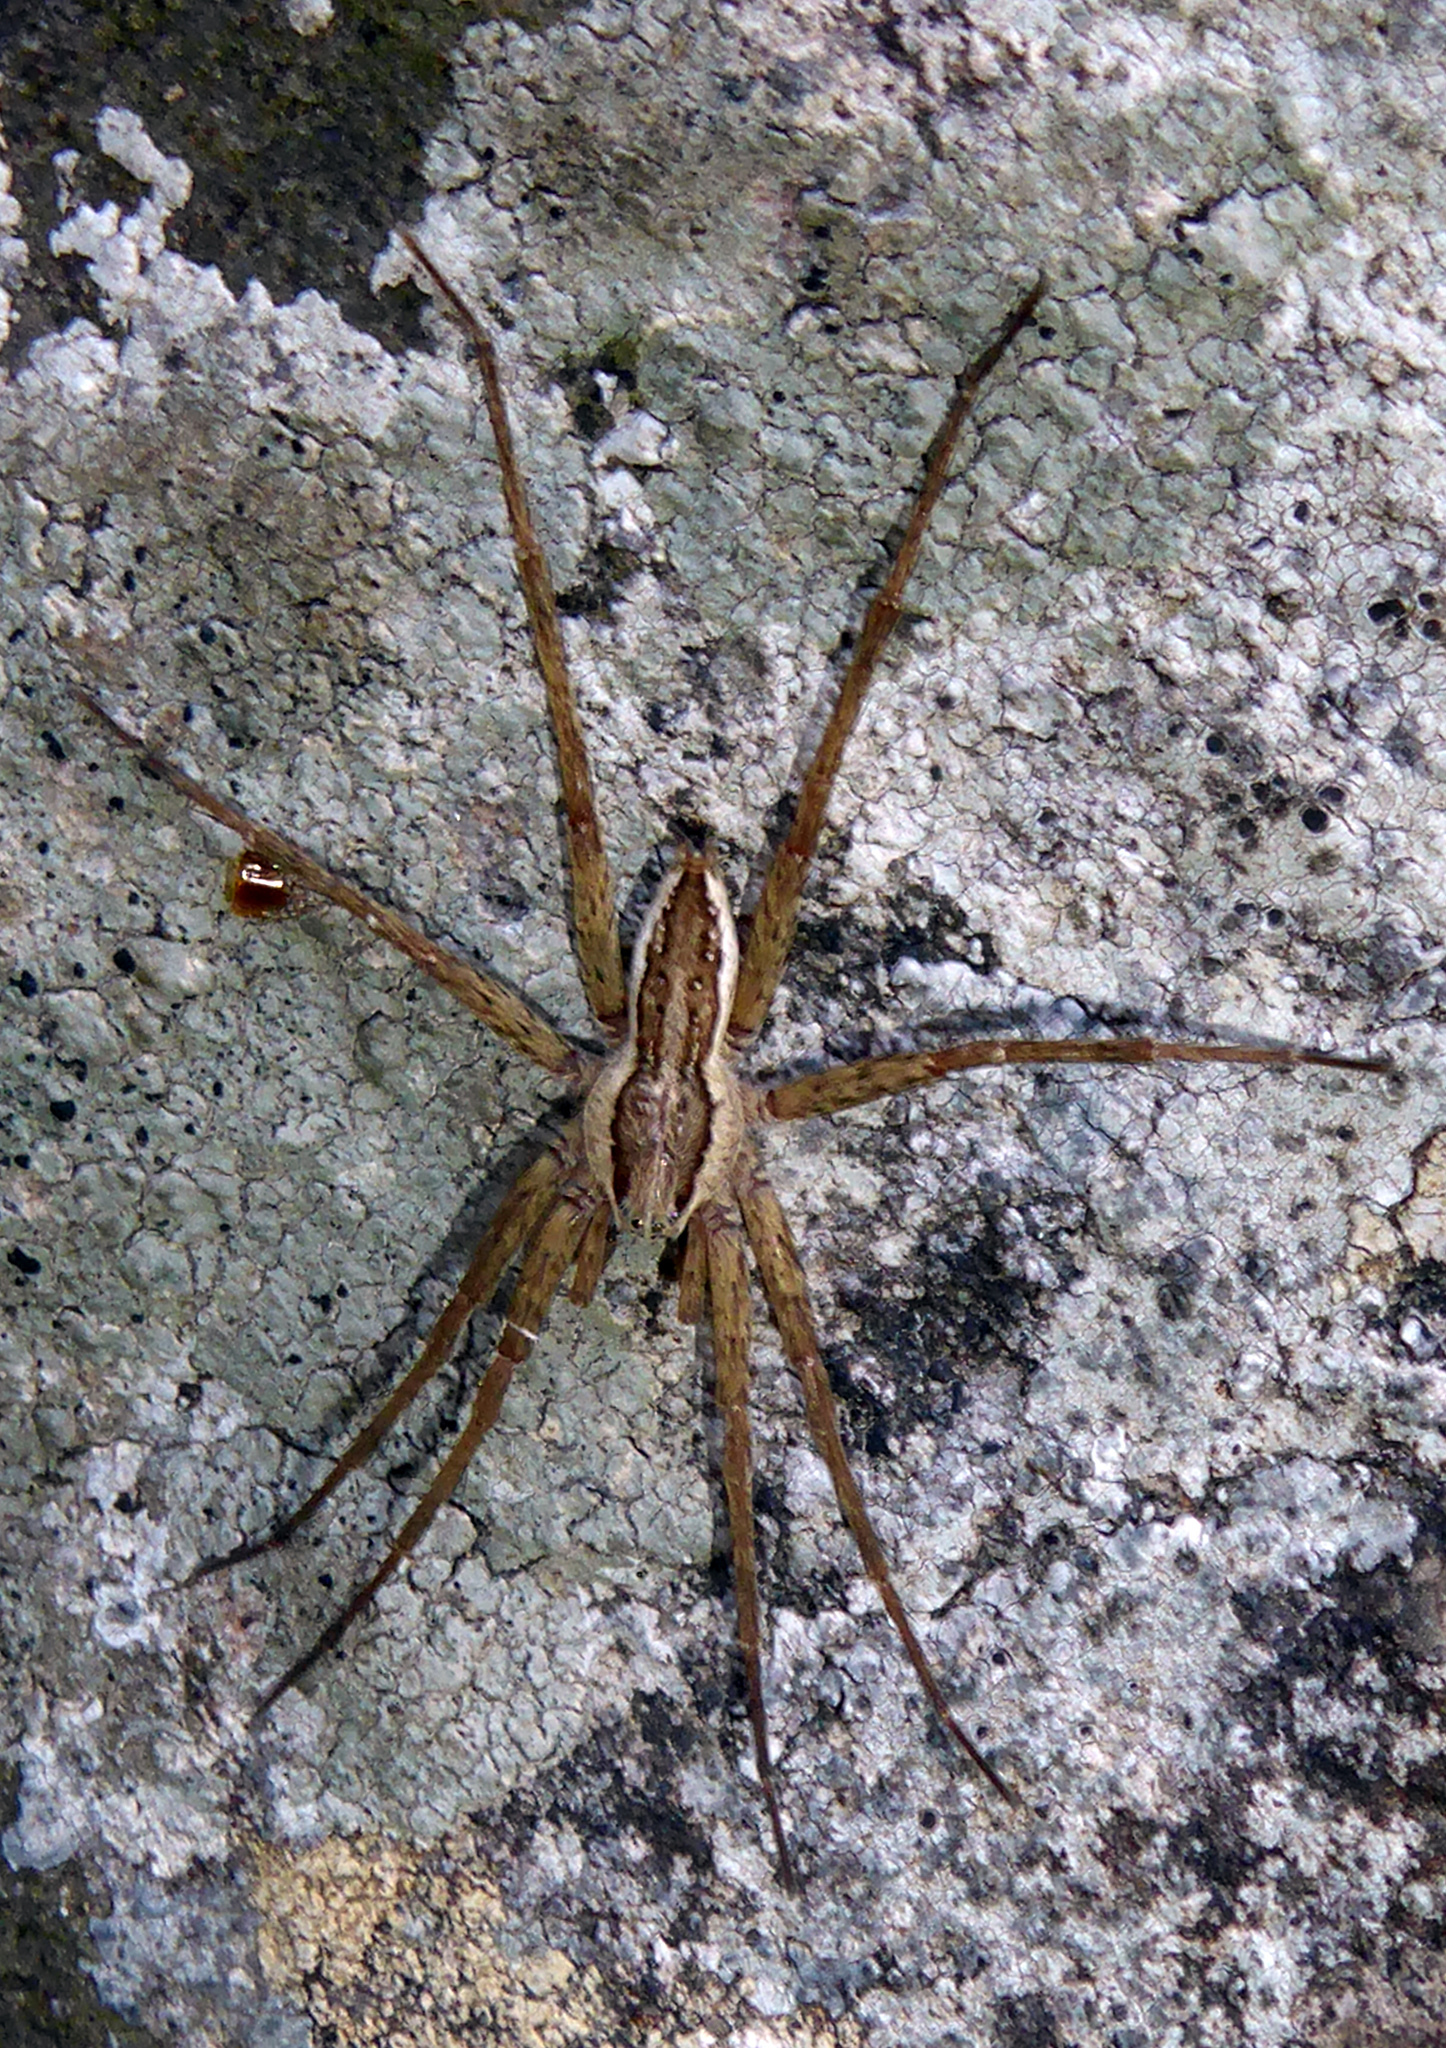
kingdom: Animalia
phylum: Arthropoda
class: Arachnida
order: Araneae
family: Pisauridae
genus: Dolomedes
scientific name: Dolomedes dondalei
